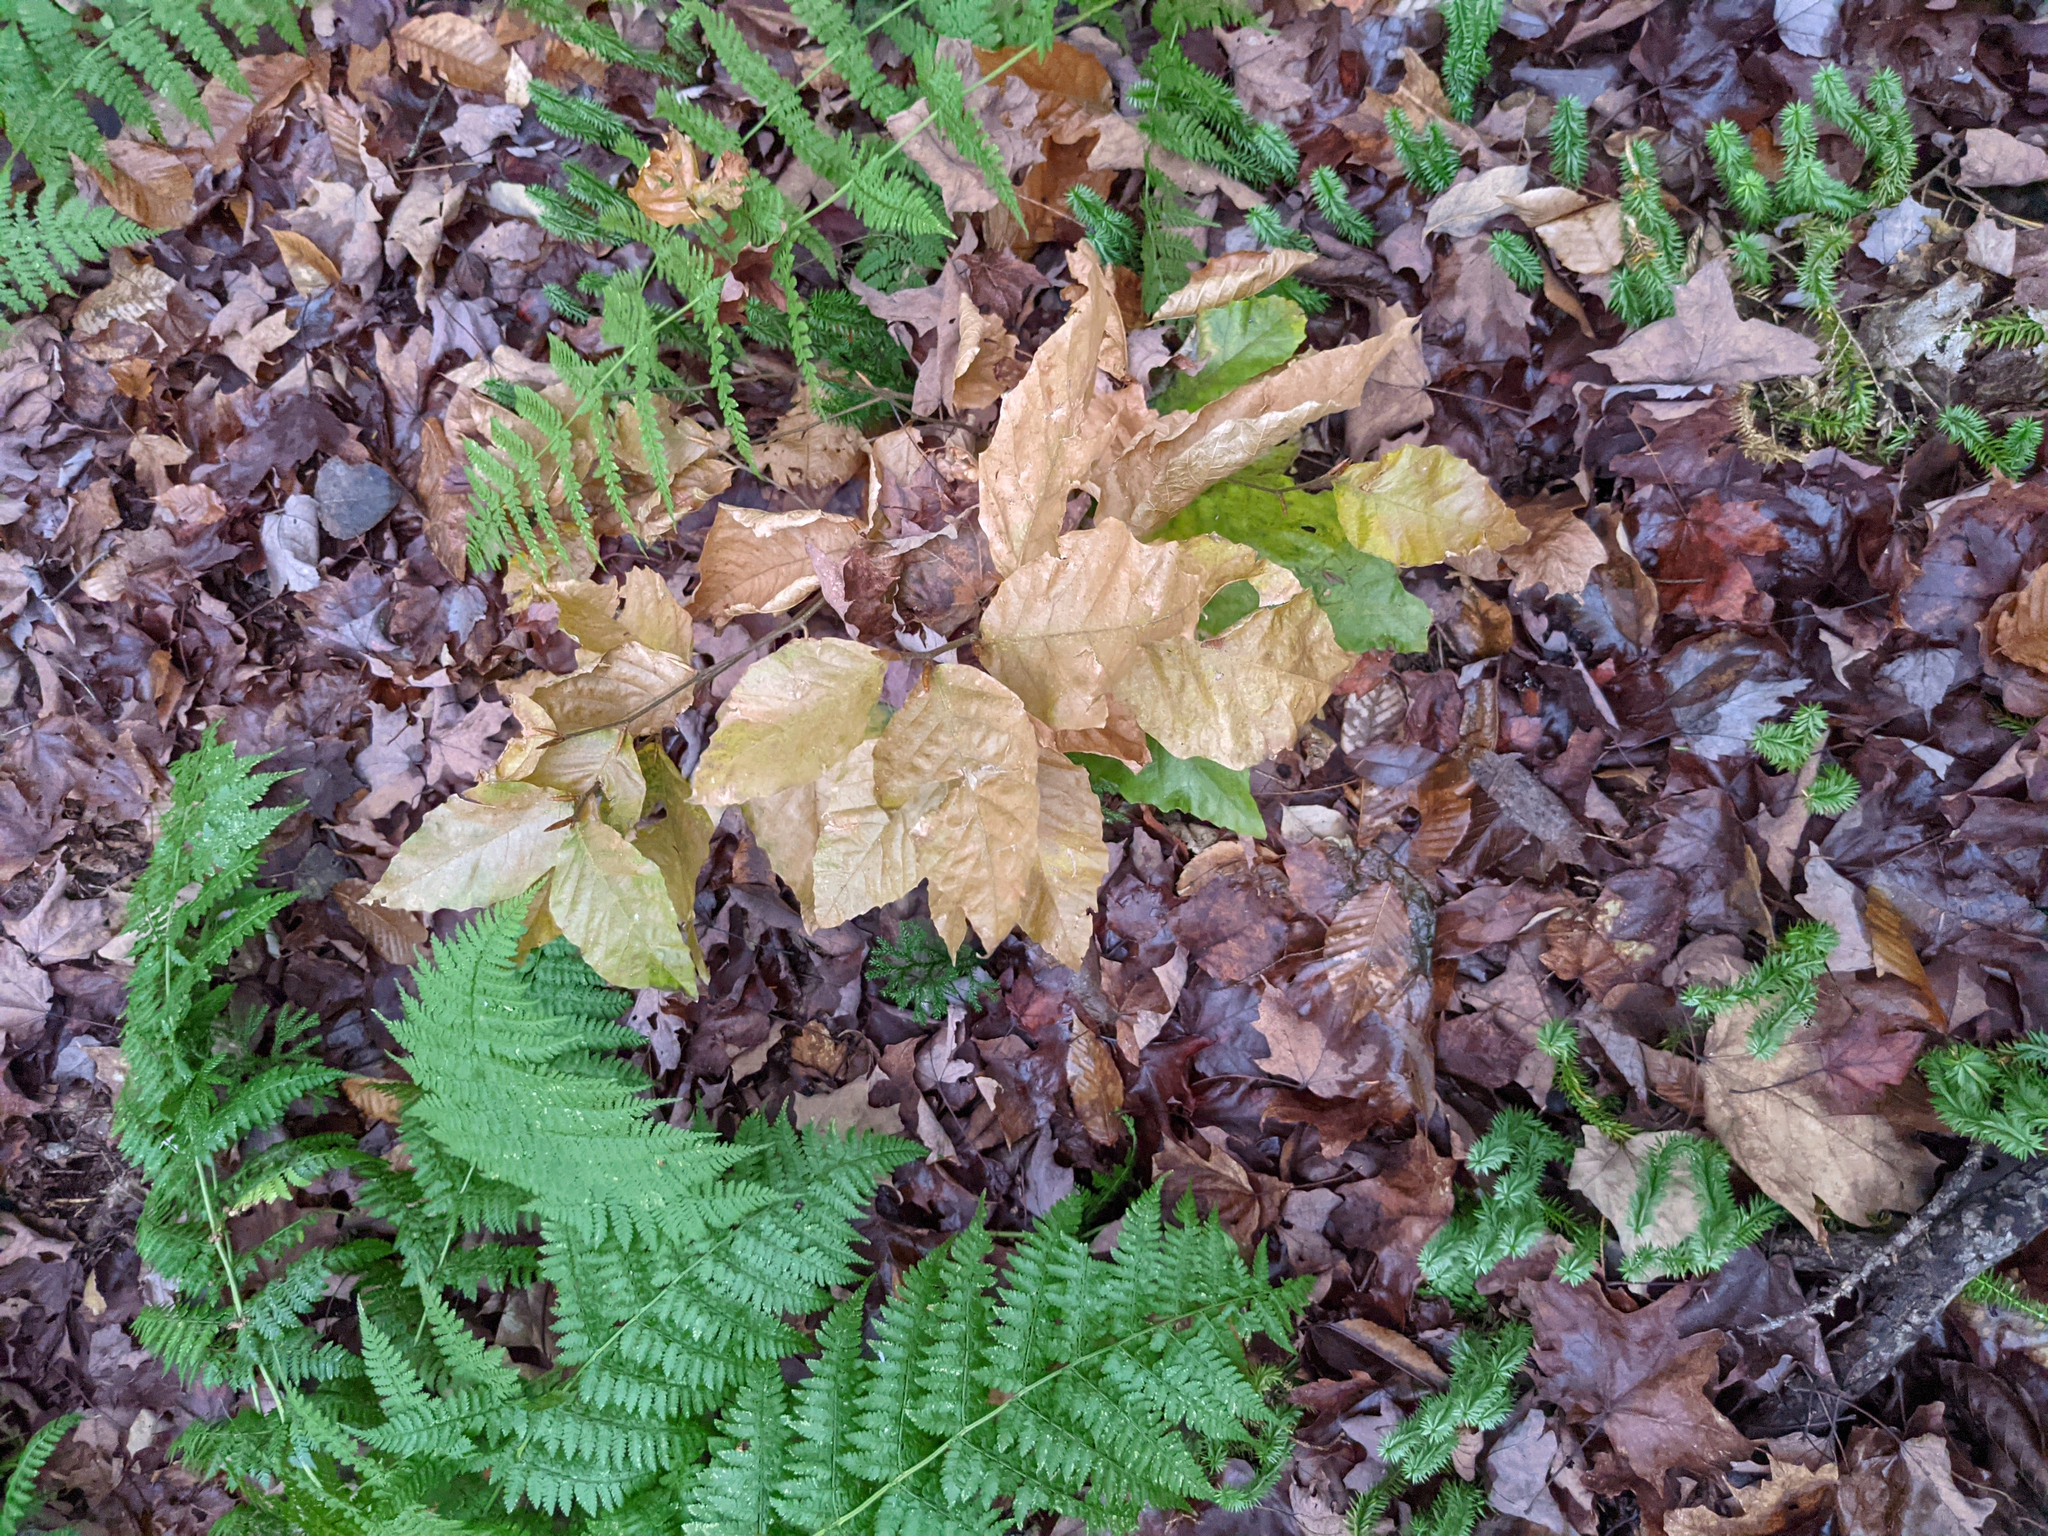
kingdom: Plantae
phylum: Tracheophyta
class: Magnoliopsida
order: Fagales
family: Fagaceae
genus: Fagus
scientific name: Fagus grandifolia
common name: American beech
